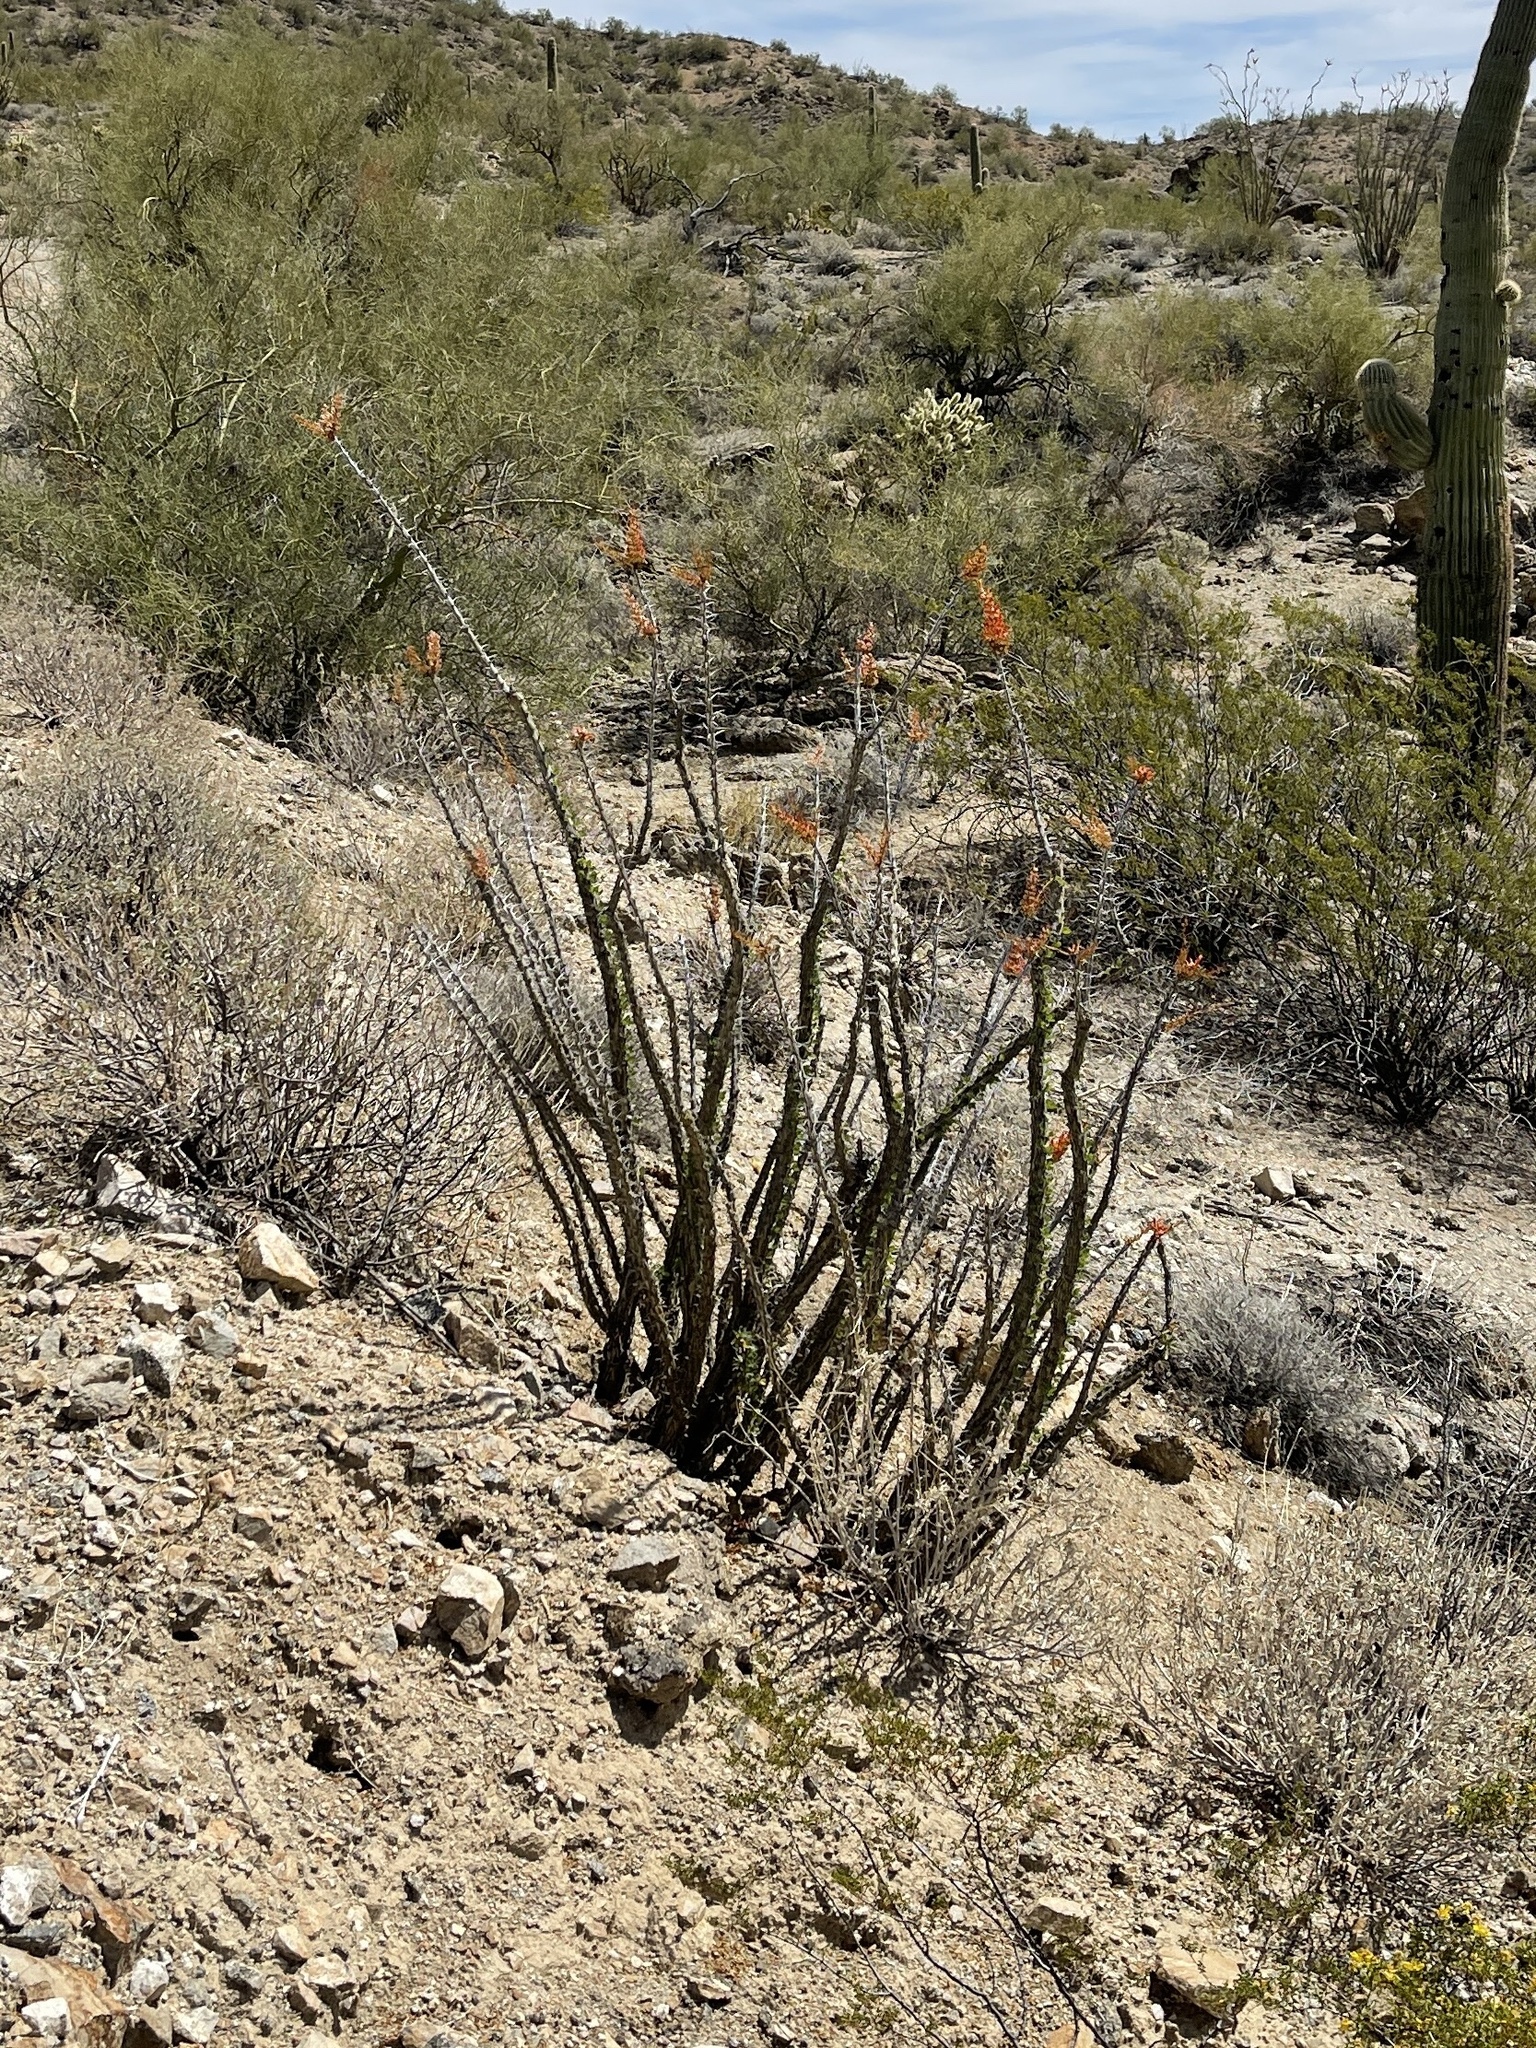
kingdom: Plantae
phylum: Tracheophyta
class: Magnoliopsida
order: Ericales
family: Fouquieriaceae
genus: Fouquieria
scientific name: Fouquieria splendens
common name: Vine-cactus
